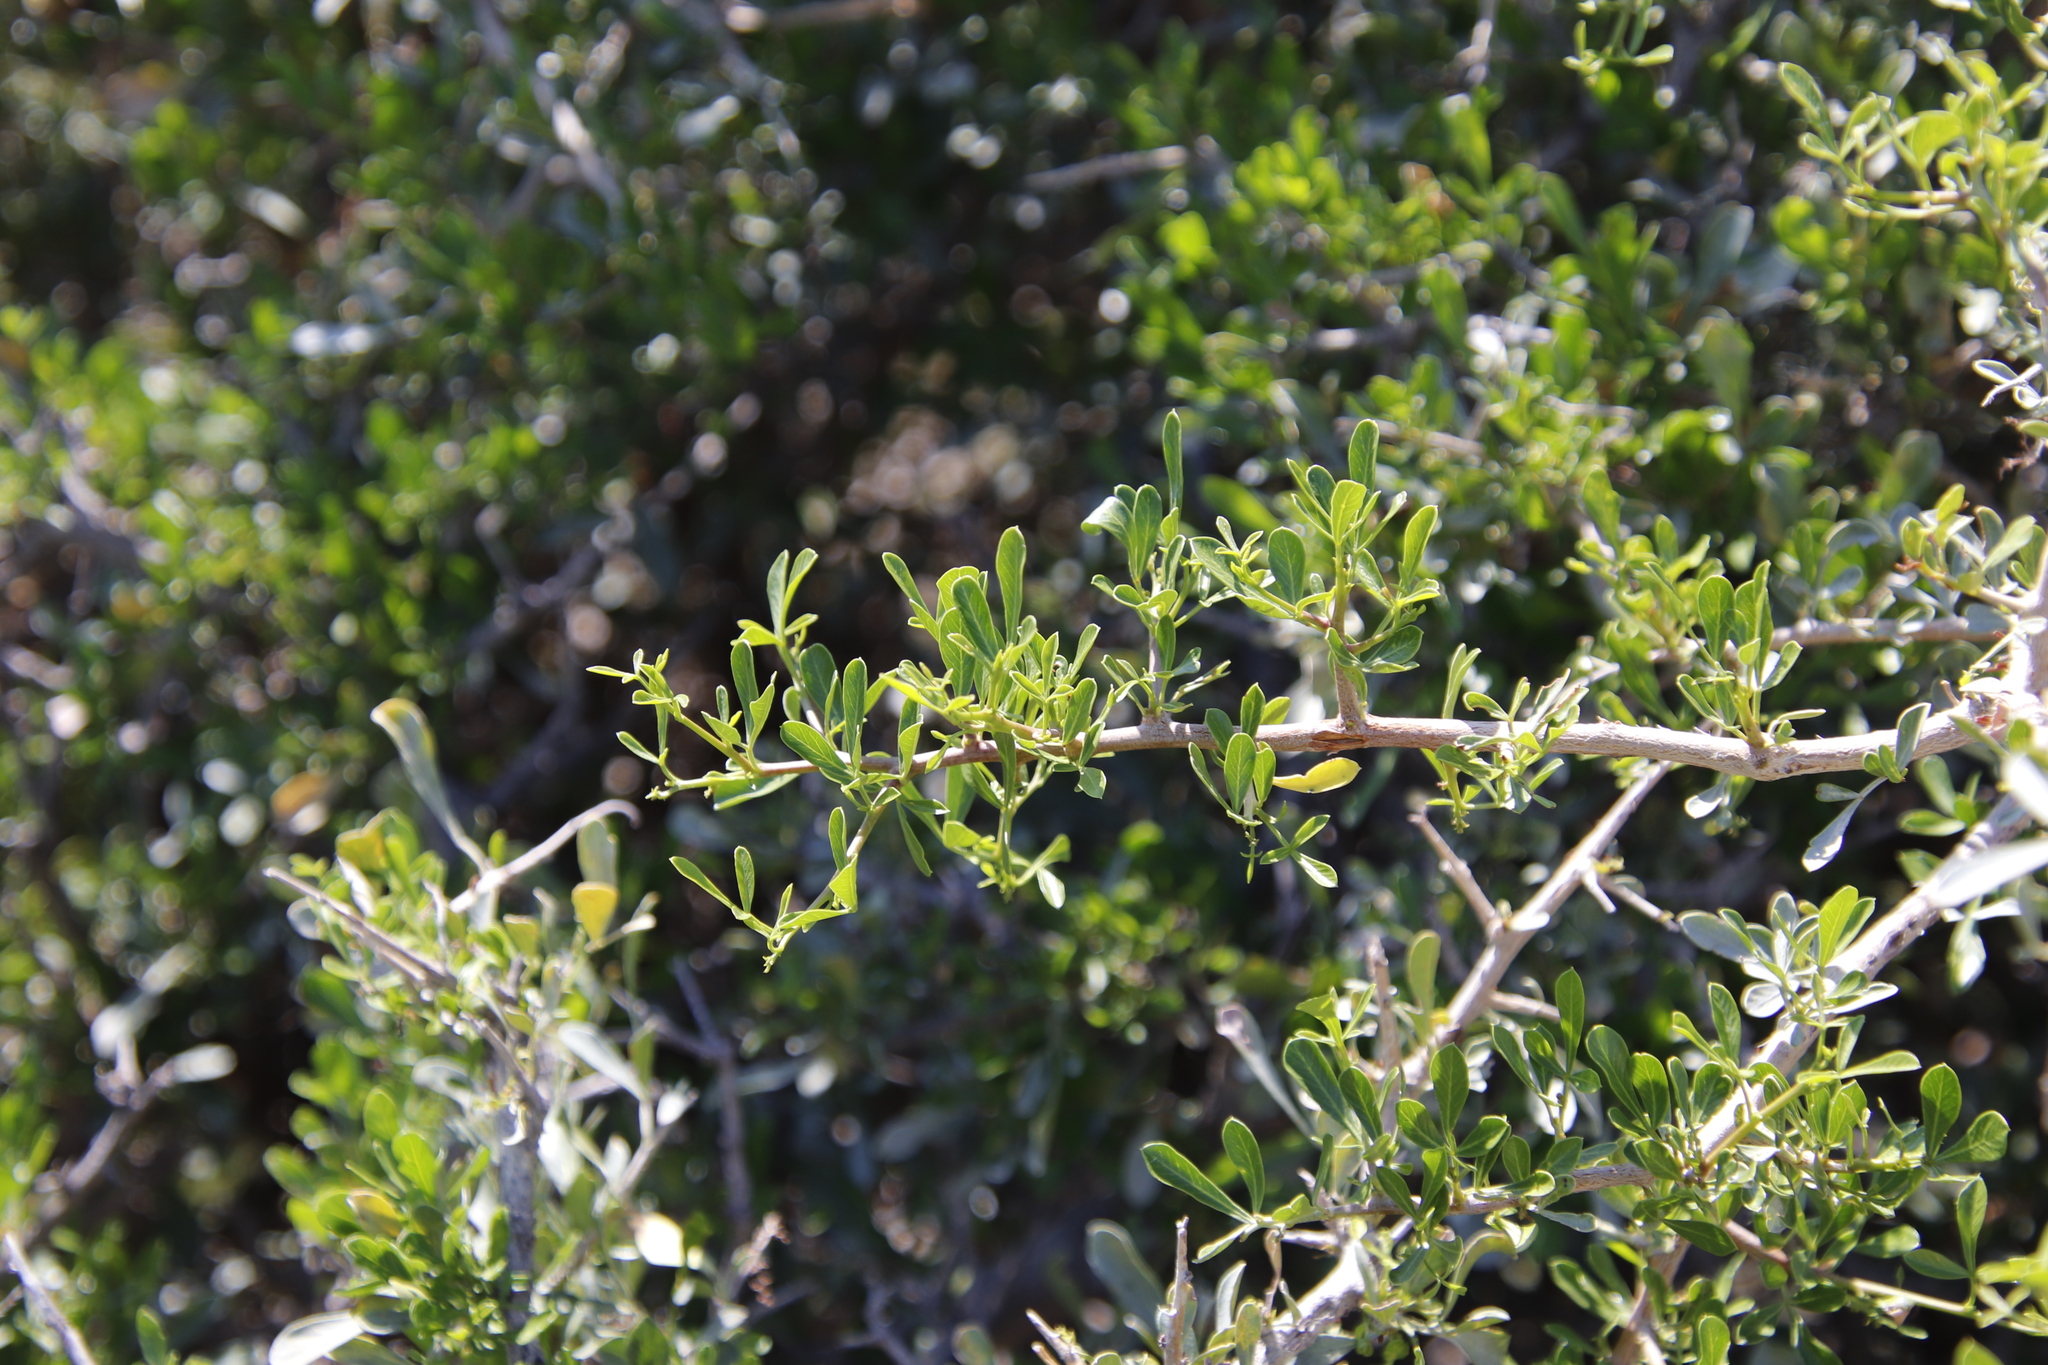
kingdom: Plantae
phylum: Tracheophyta
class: Magnoliopsida
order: Sapindales
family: Anacardiaceae
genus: Searsia
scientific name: Searsia longispina
